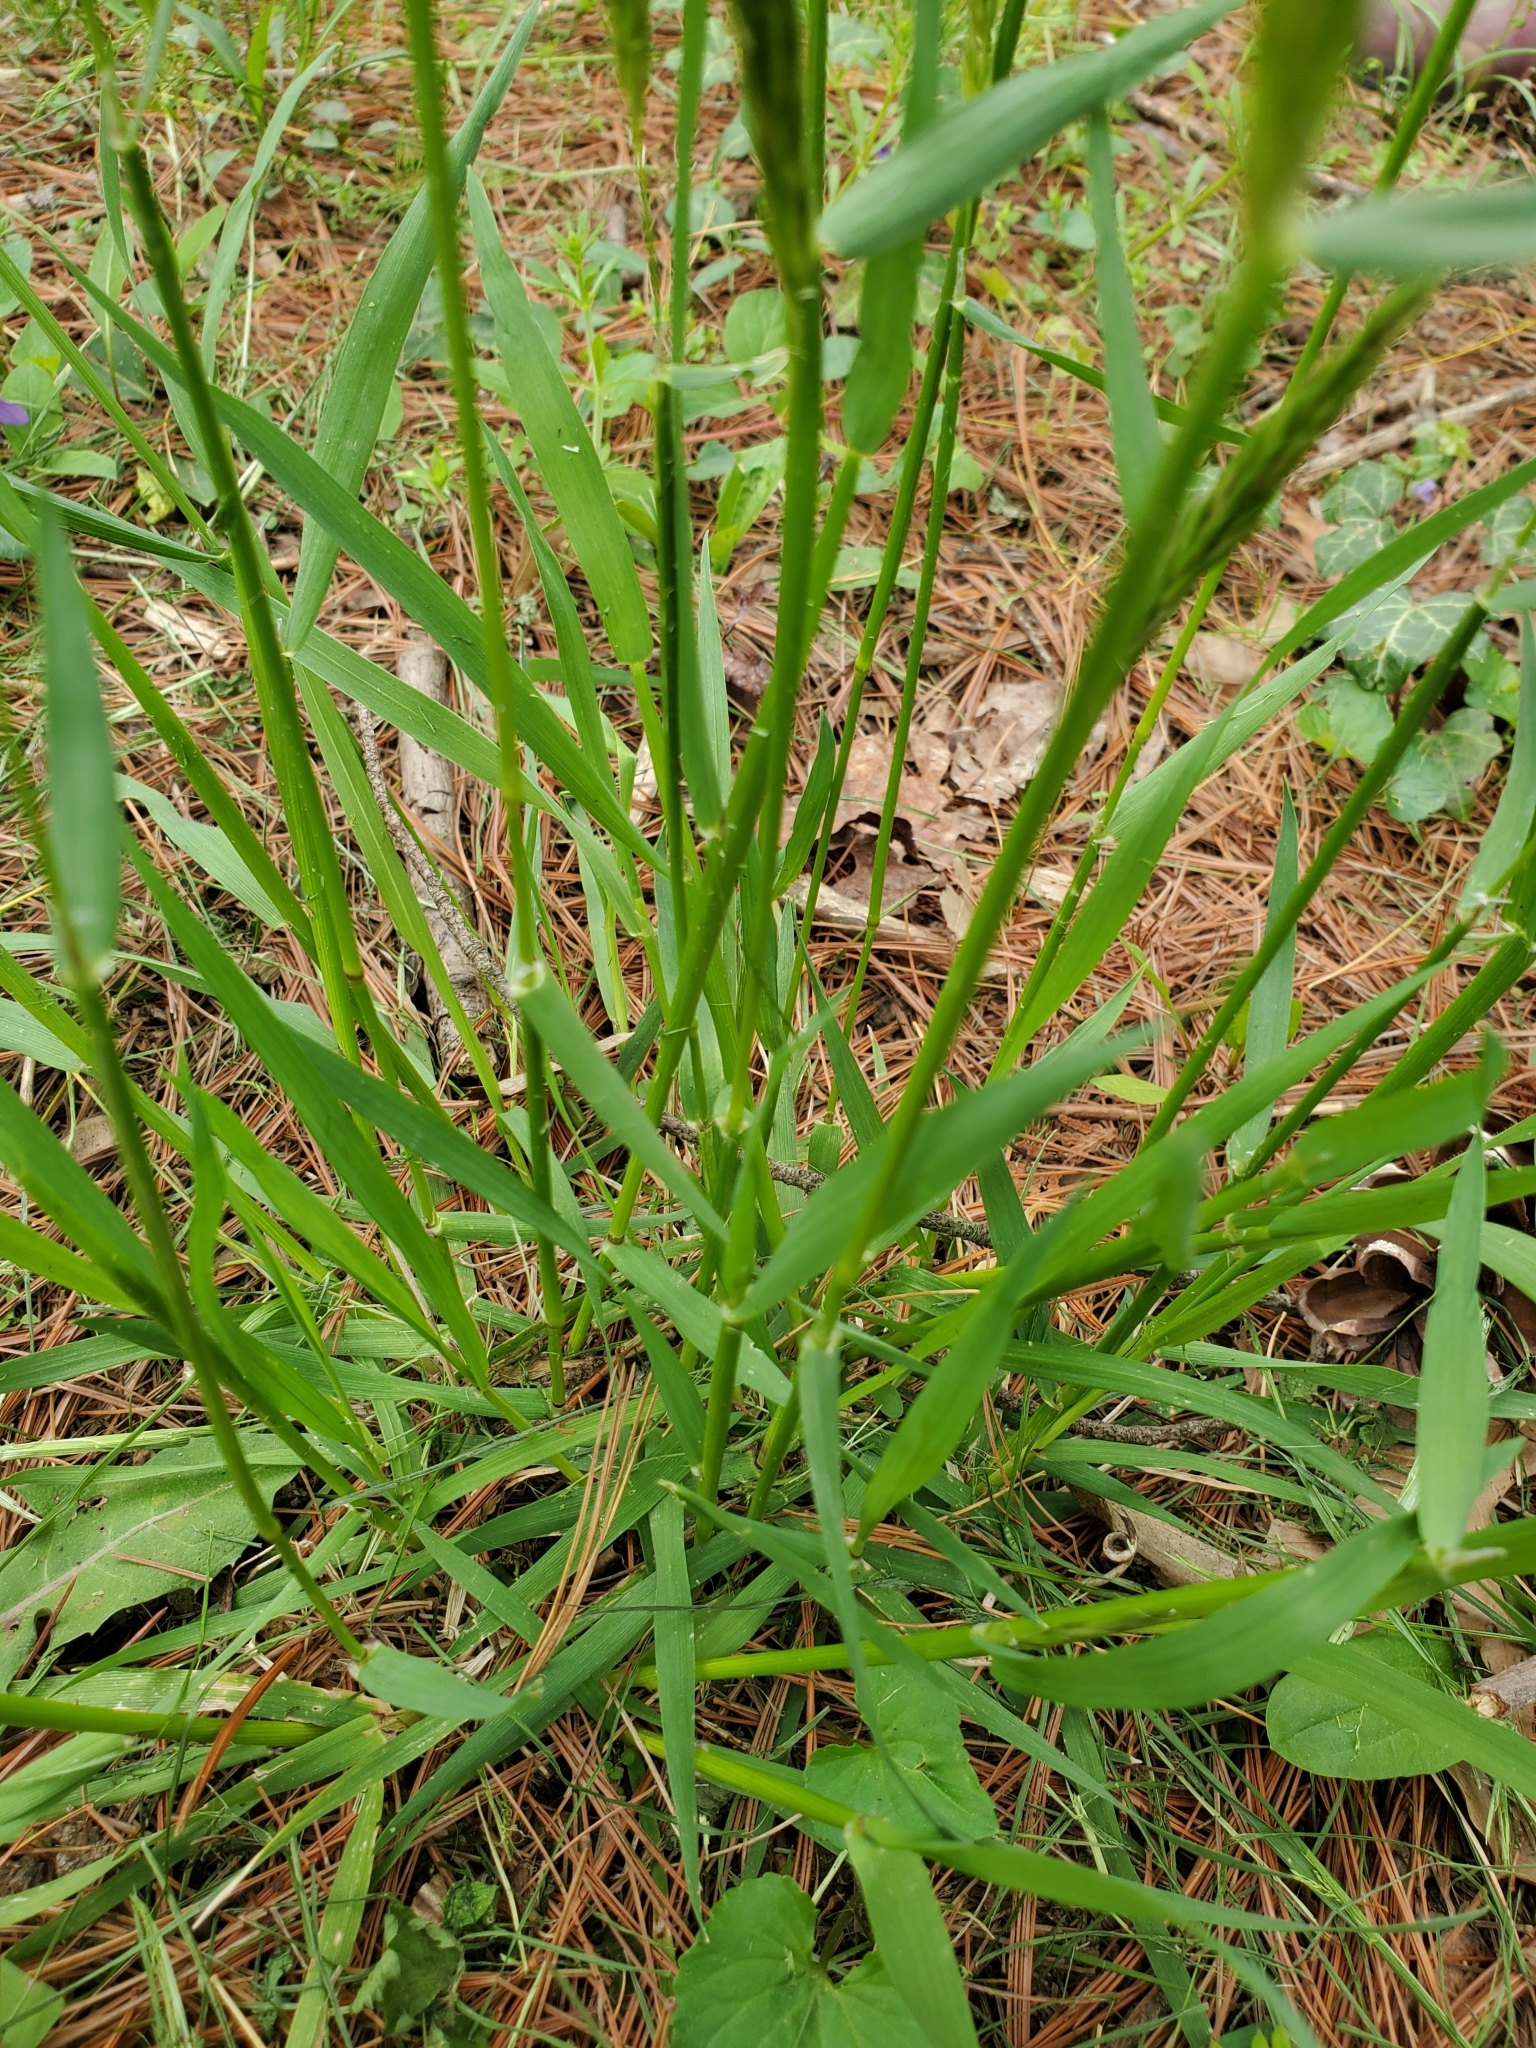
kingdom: Plantae
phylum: Tracheophyta
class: Liliopsida
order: Poales
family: Poaceae
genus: Anthoxanthum
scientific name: Anthoxanthum odoratum
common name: Sweet vernalgrass
